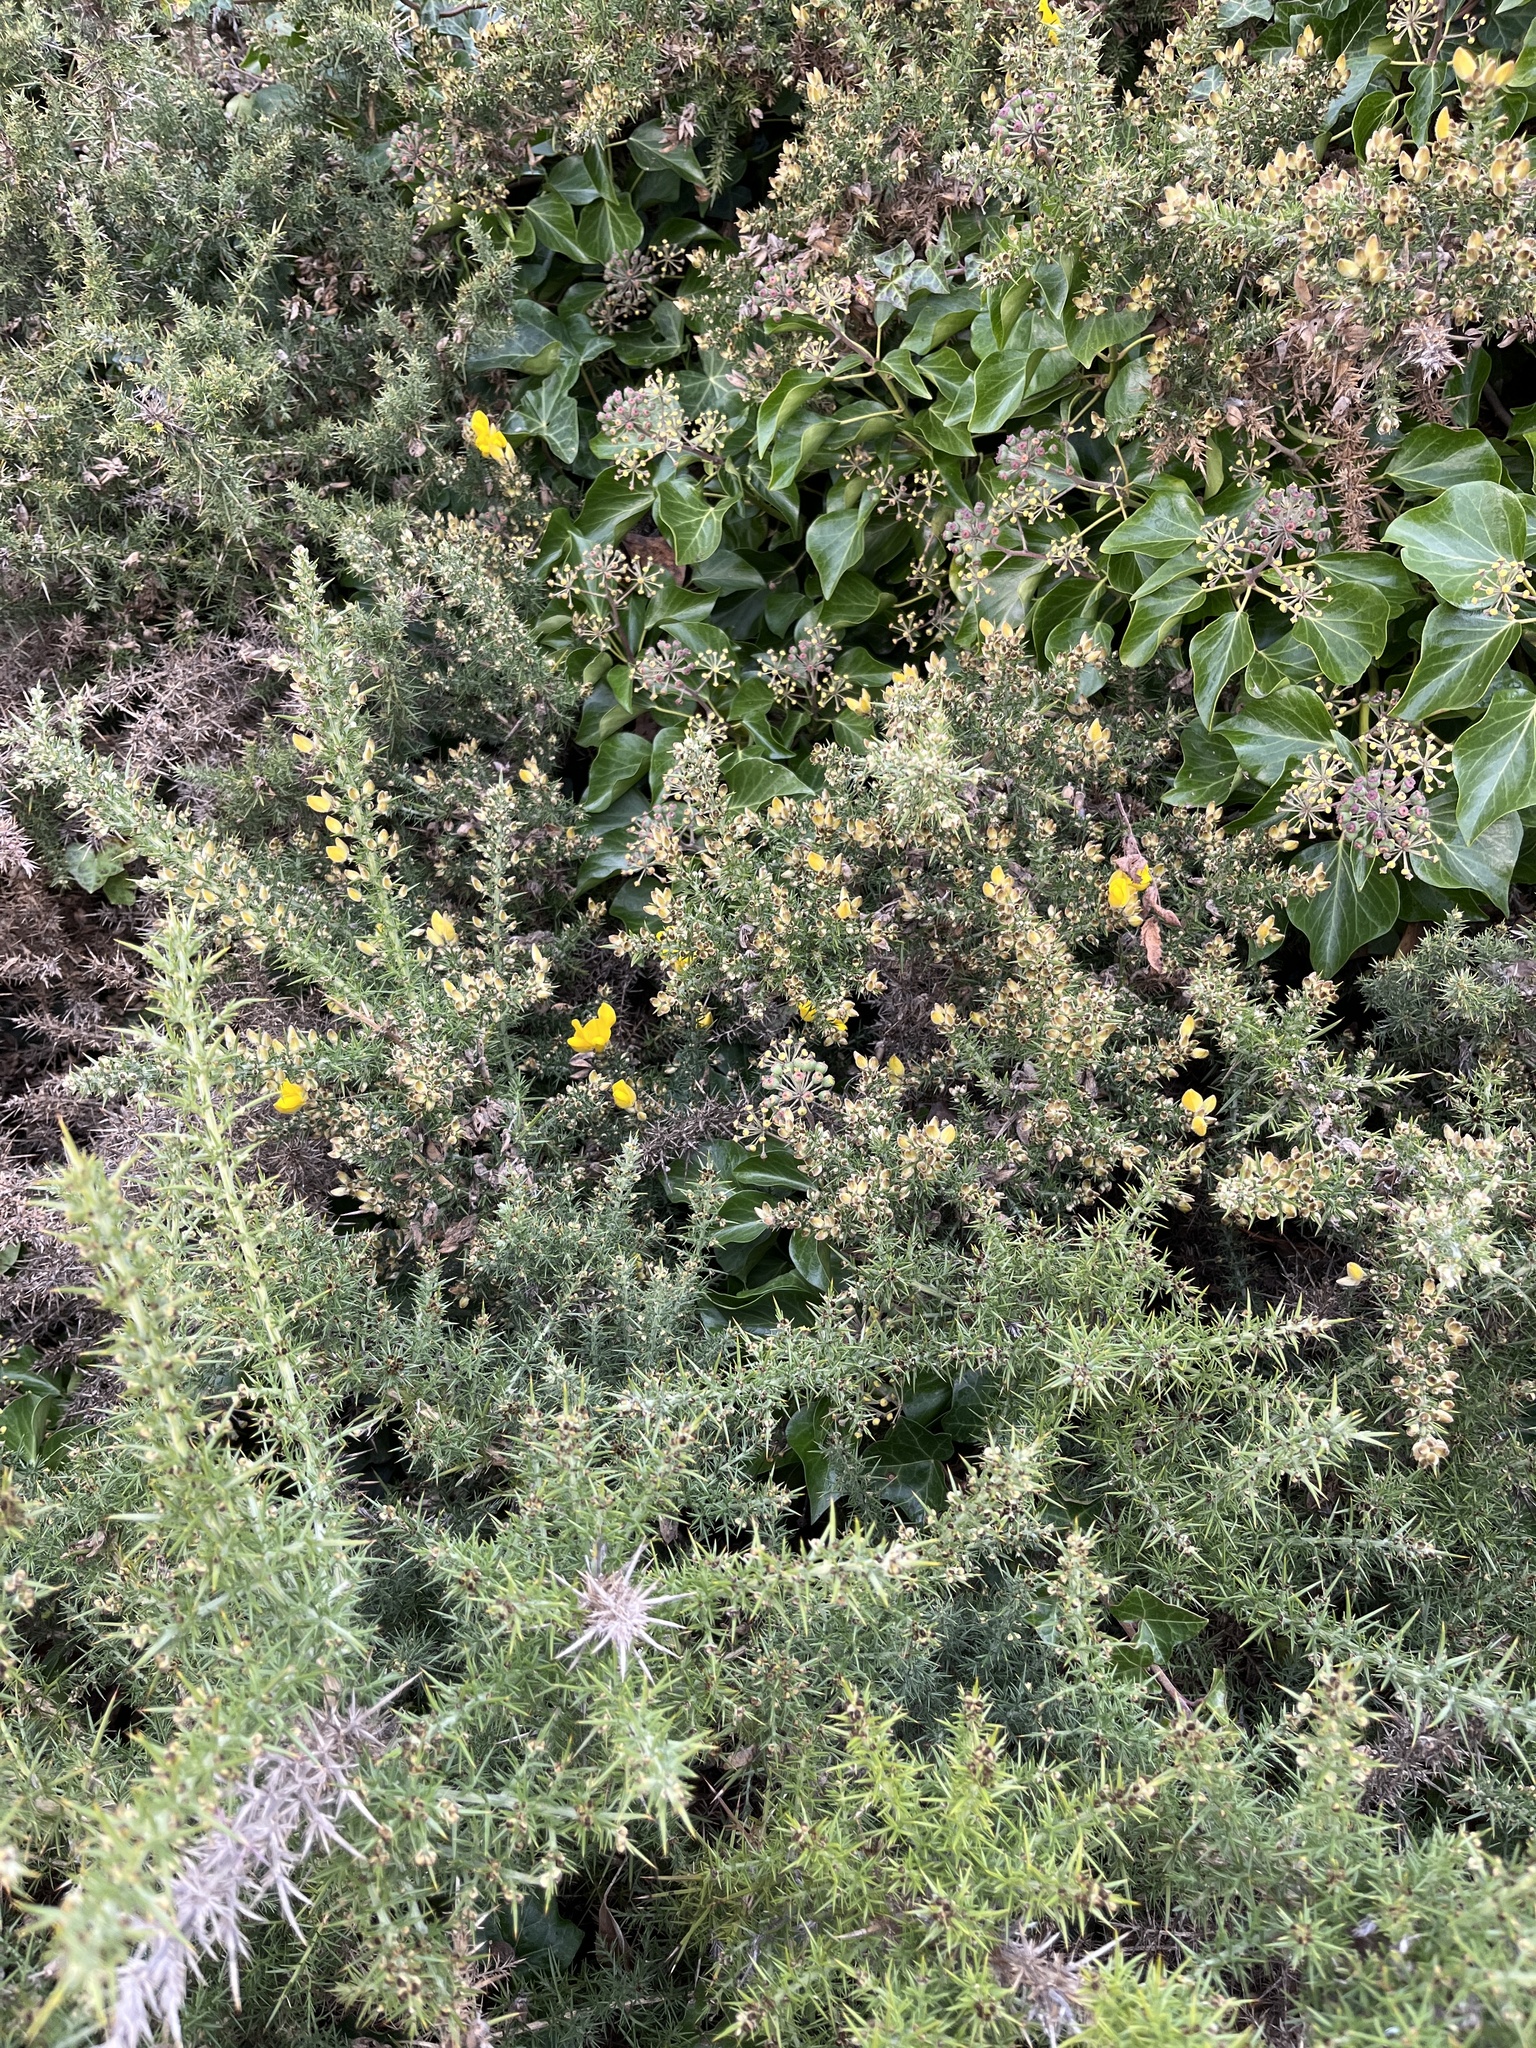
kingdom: Plantae
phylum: Tracheophyta
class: Magnoliopsida
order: Fabales
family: Fabaceae
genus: Ulex
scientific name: Ulex europaeus
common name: Common gorse
